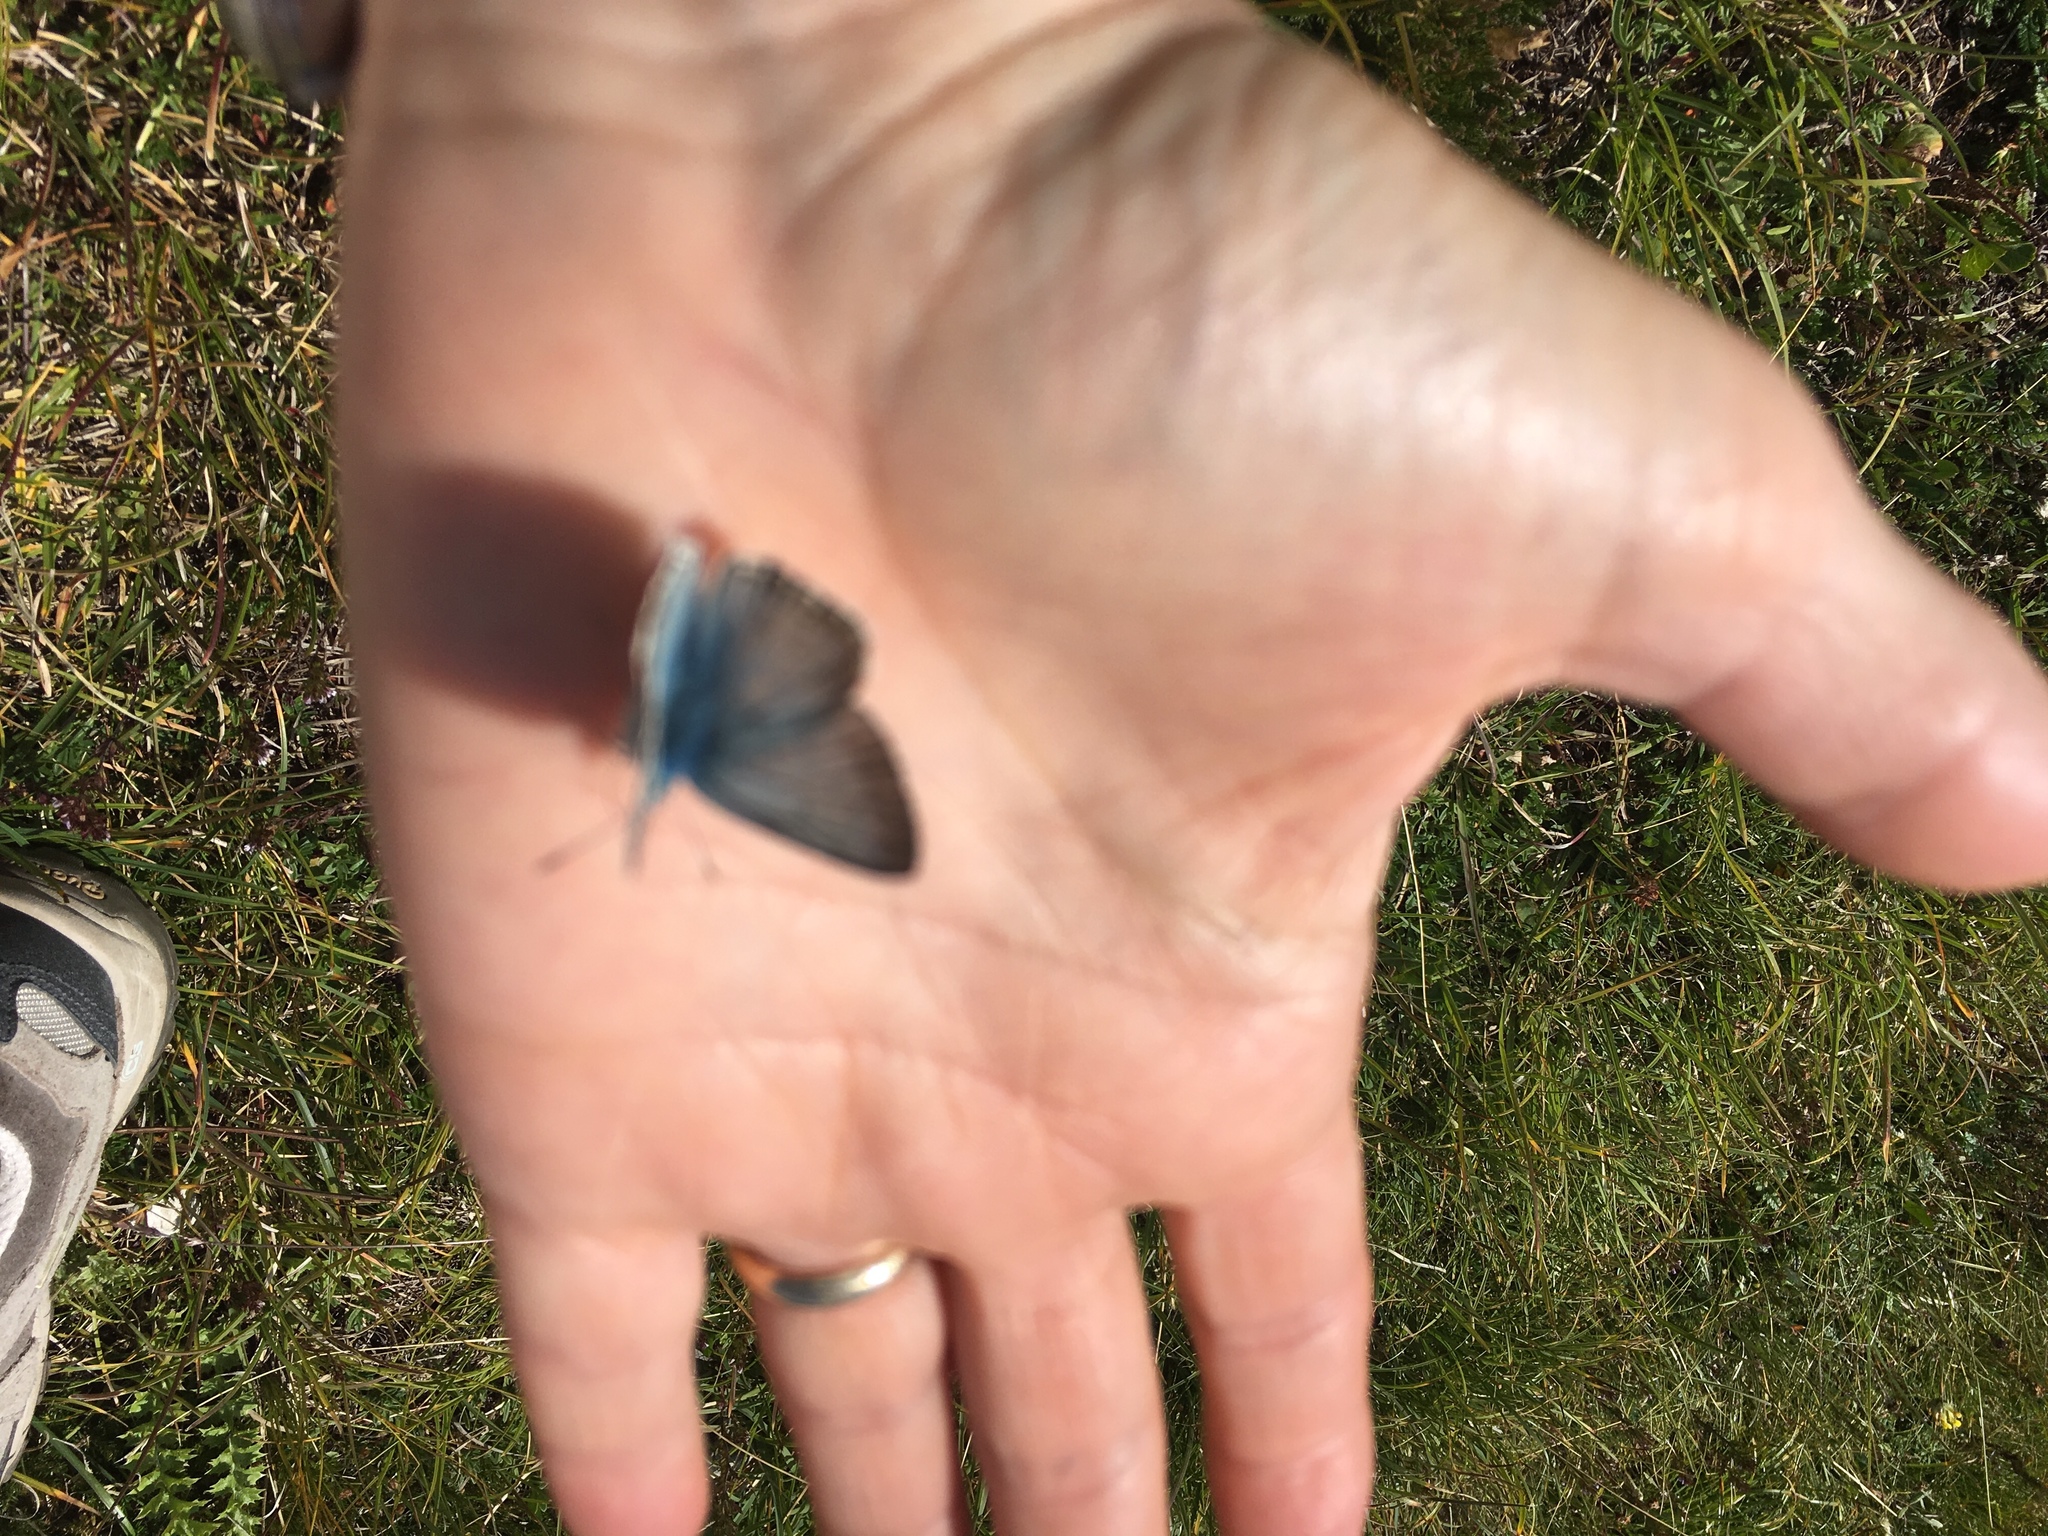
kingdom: Animalia
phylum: Arthropoda
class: Insecta
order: Lepidoptera
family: Lycaenidae
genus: Lysandra
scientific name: Lysandra coridon
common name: Chalkhill blue
